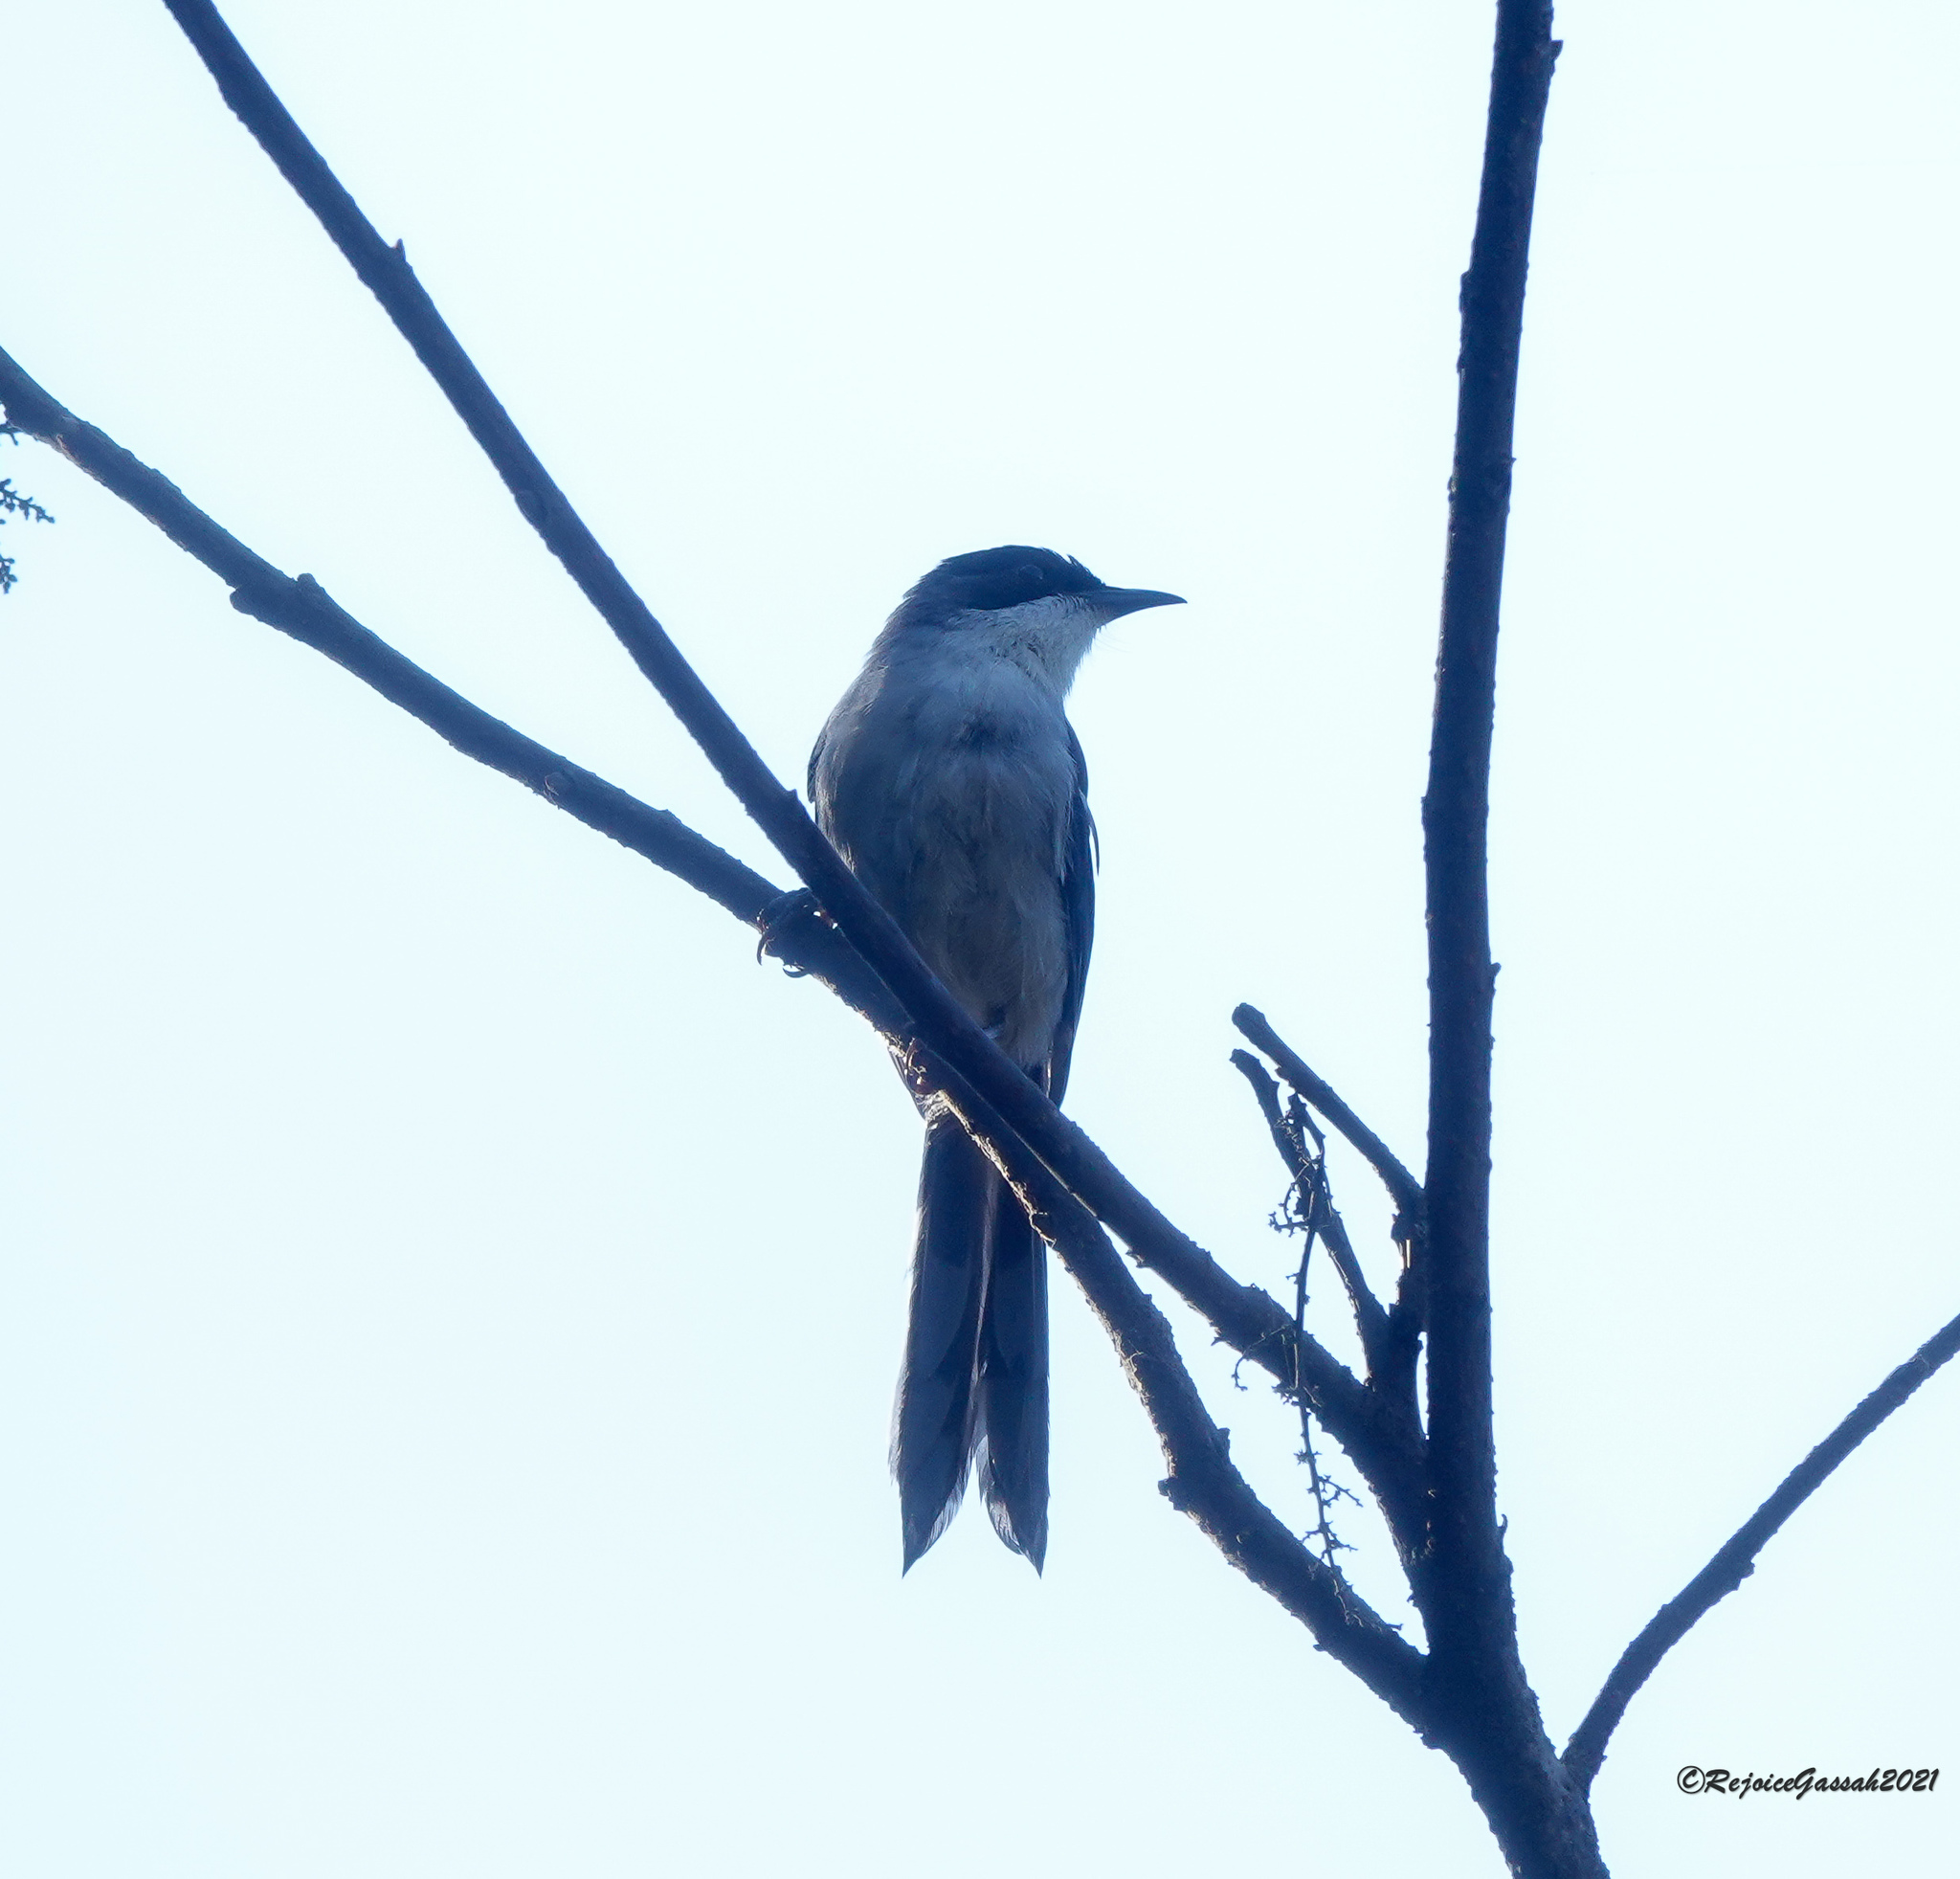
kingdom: Animalia
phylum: Chordata
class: Aves
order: Passeriformes
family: Leiothrichidae
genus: Heterophasia
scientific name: Heterophasia gracilis
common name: Grey sibia
